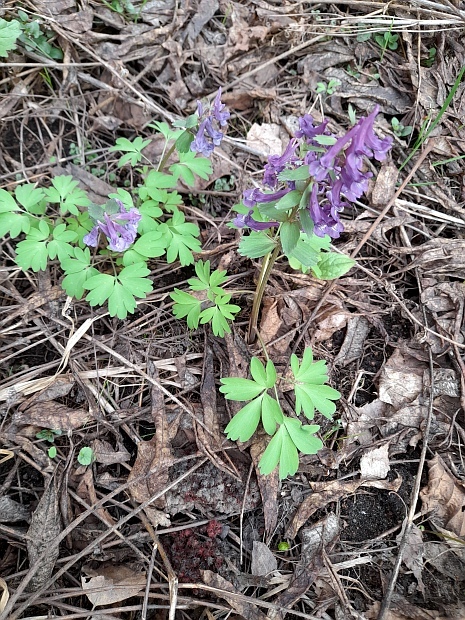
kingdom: Plantae
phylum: Tracheophyta
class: Magnoliopsida
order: Ranunculales
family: Papaveraceae
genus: Corydalis
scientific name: Corydalis solida
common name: Bird-in-a-bush
